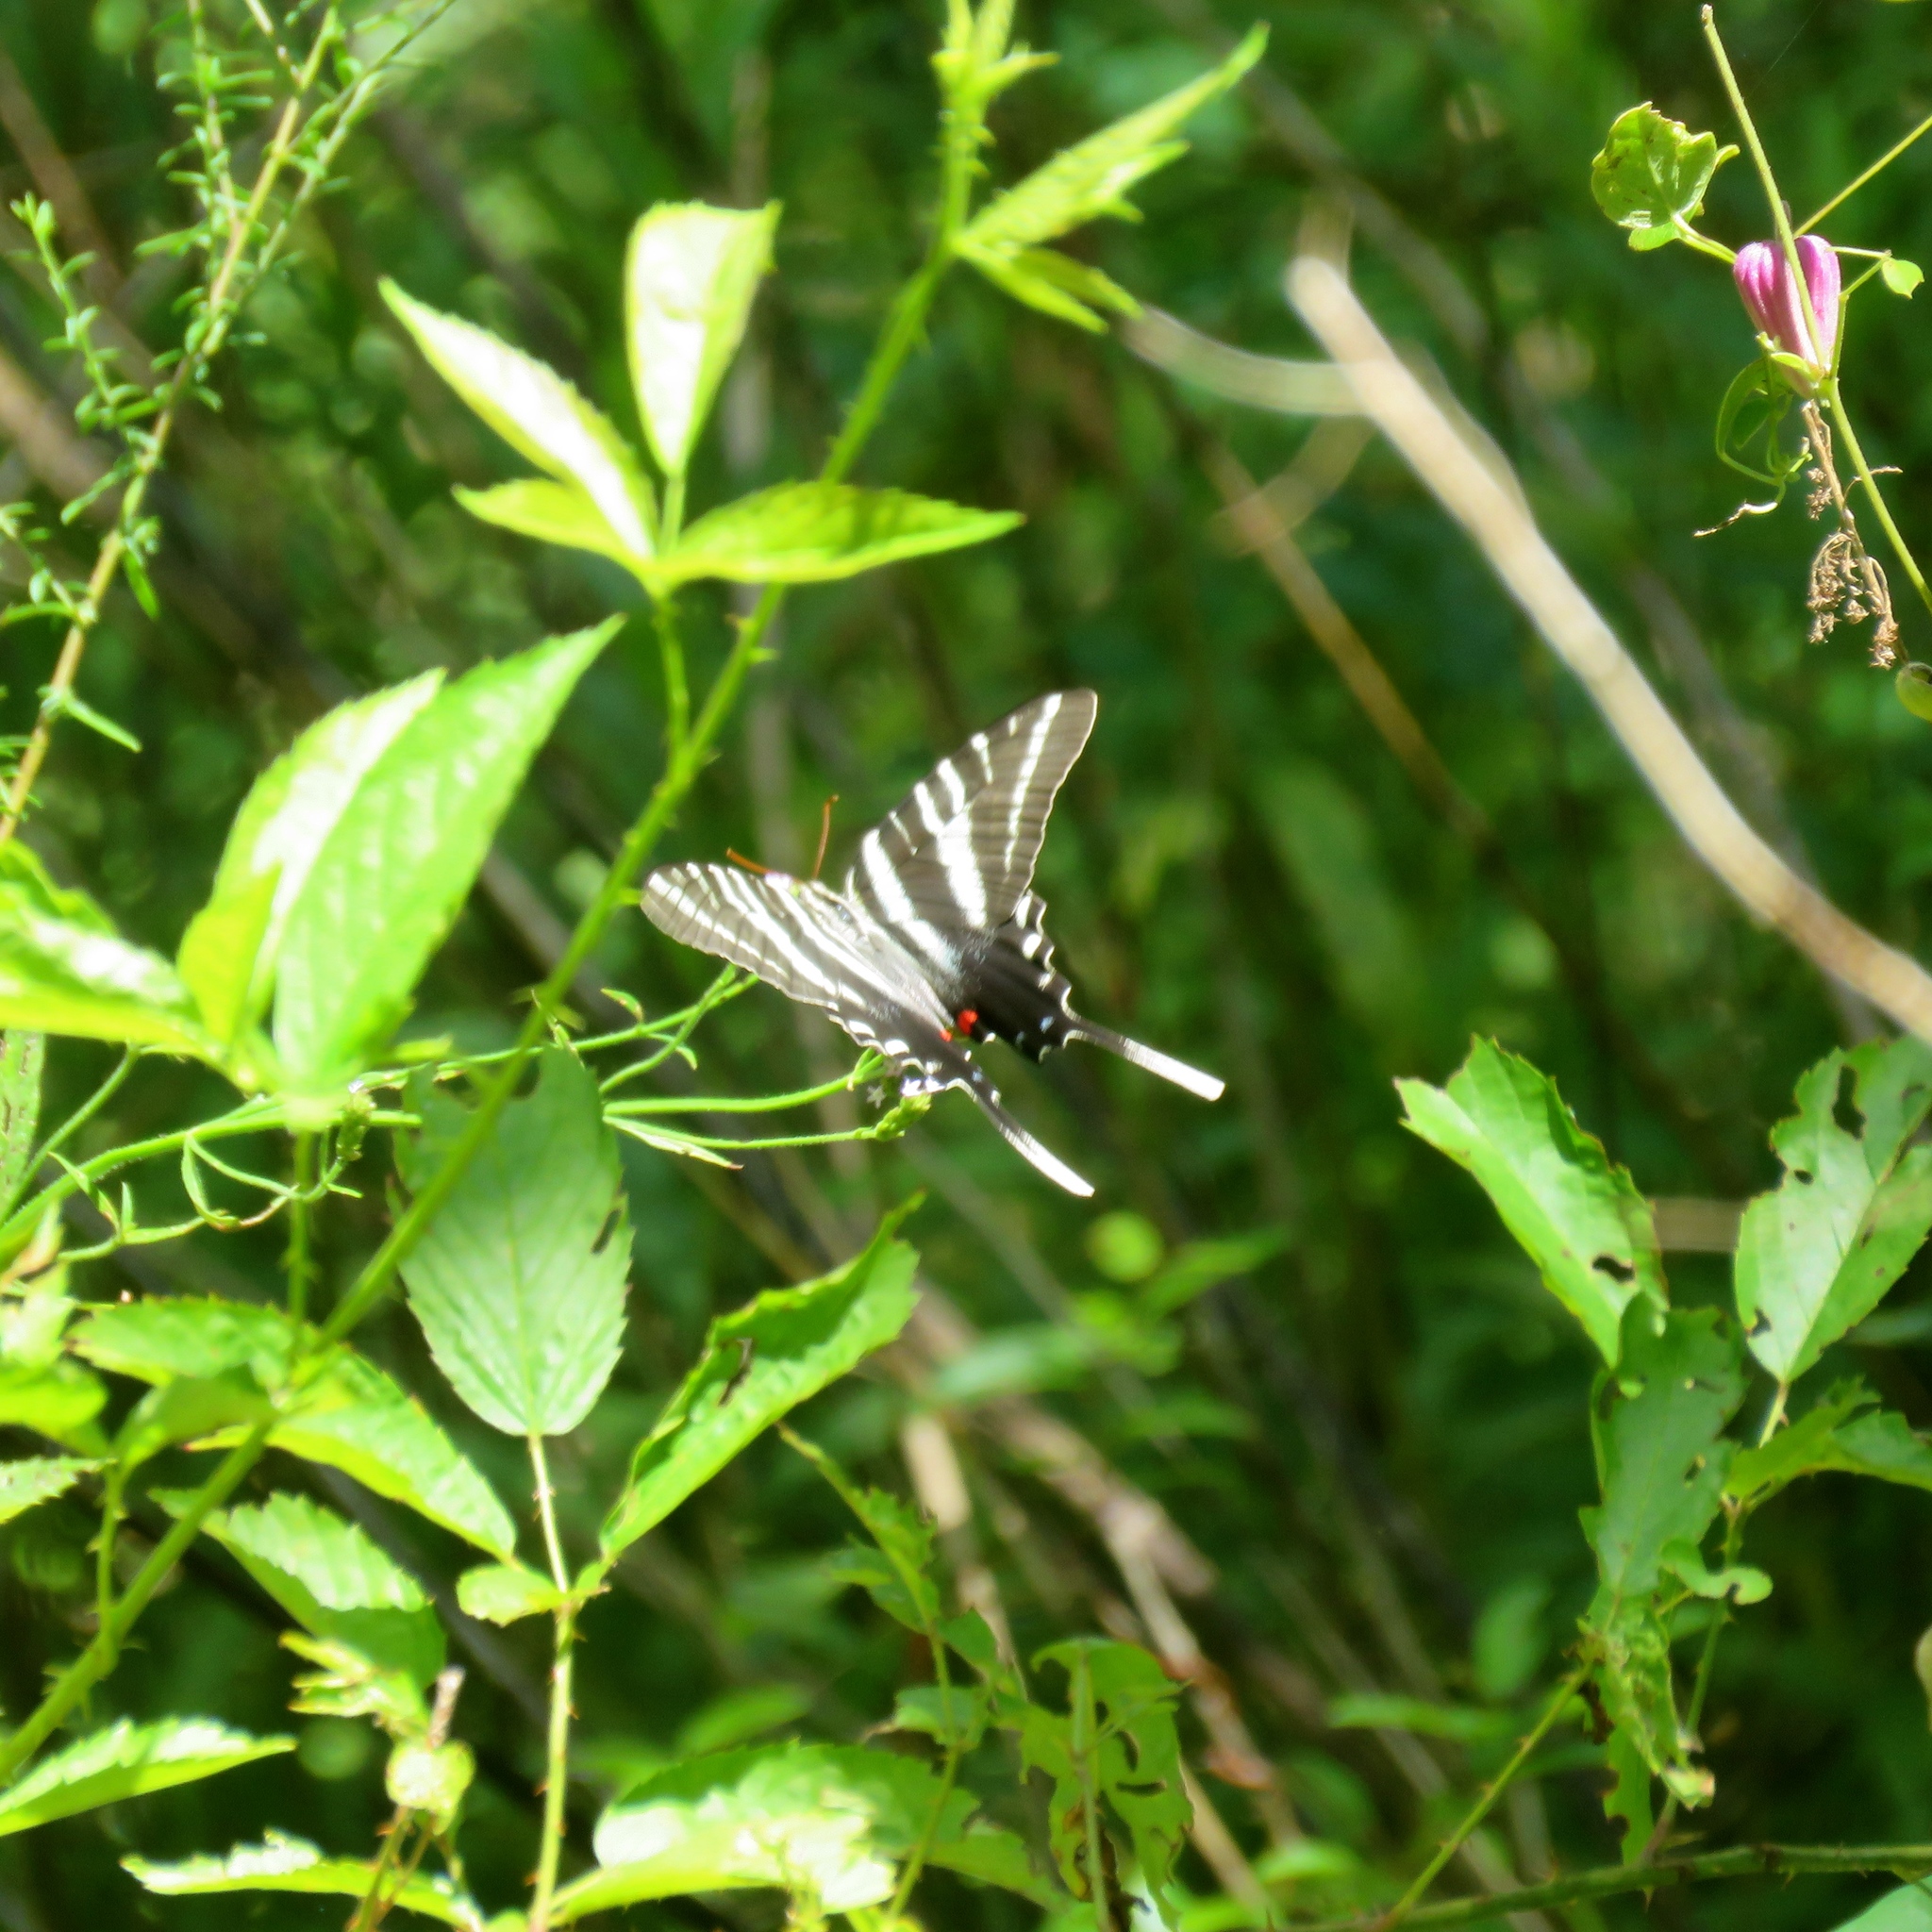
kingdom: Animalia
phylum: Arthropoda
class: Insecta
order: Lepidoptera
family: Papilionidae
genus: Protographium
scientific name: Protographium marcellus
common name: Zebra swallowtail
